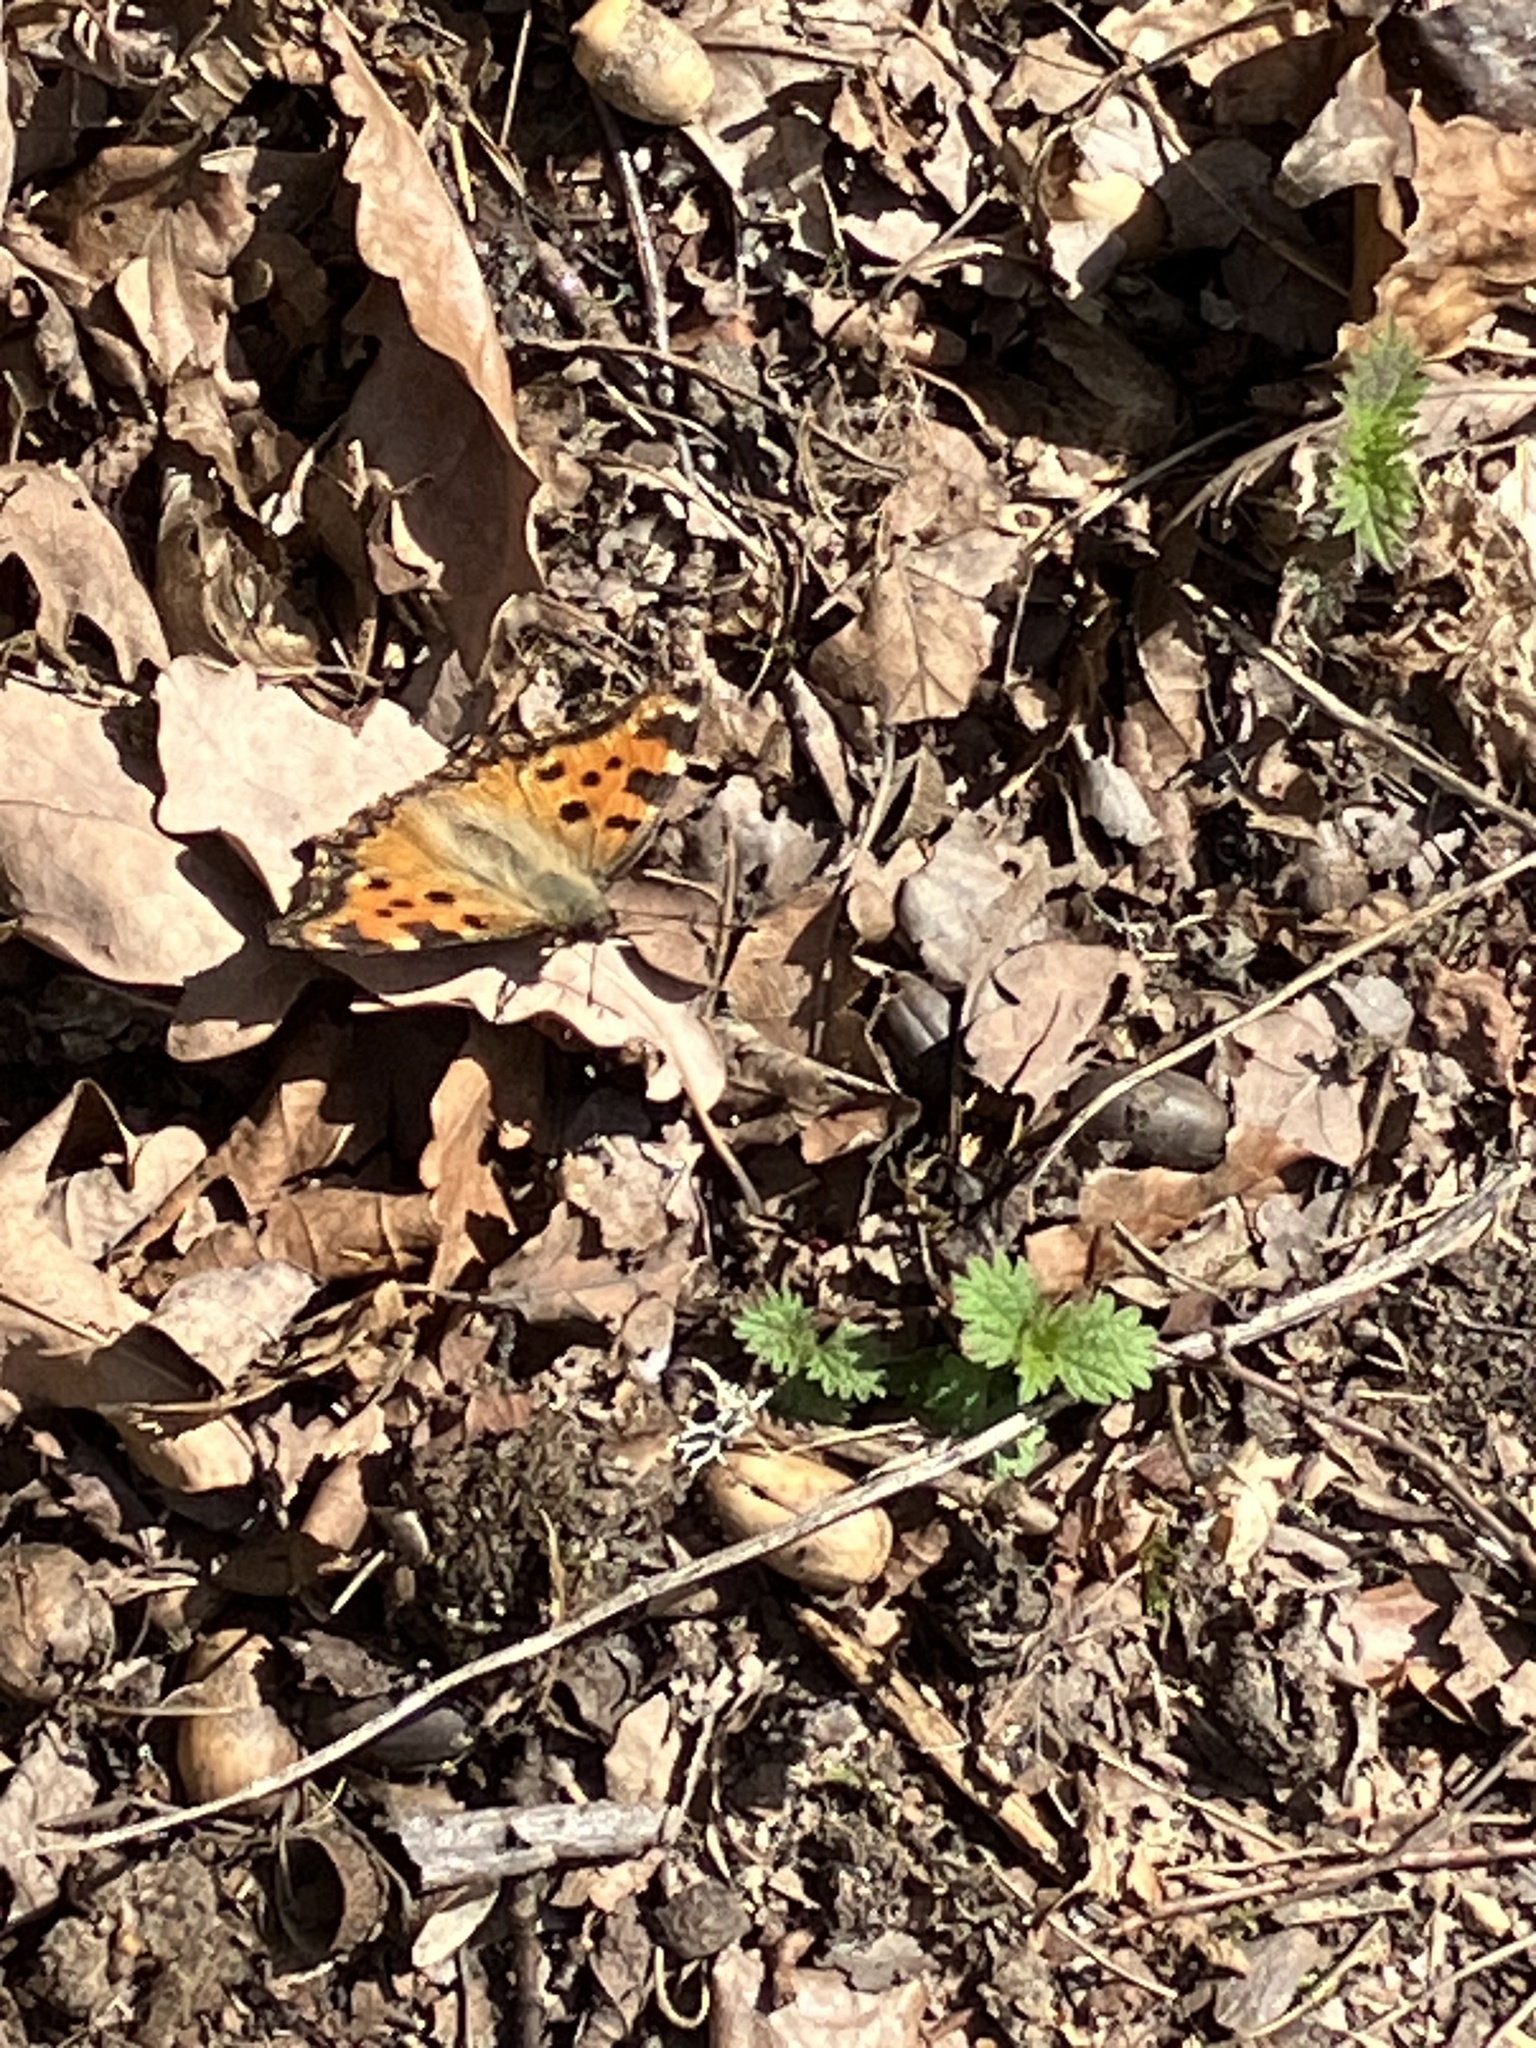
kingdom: Animalia
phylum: Arthropoda
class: Insecta
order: Lepidoptera
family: Nymphalidae
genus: Nymphalis
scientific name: Nymphalis polychloros
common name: Large tortoiseshell
